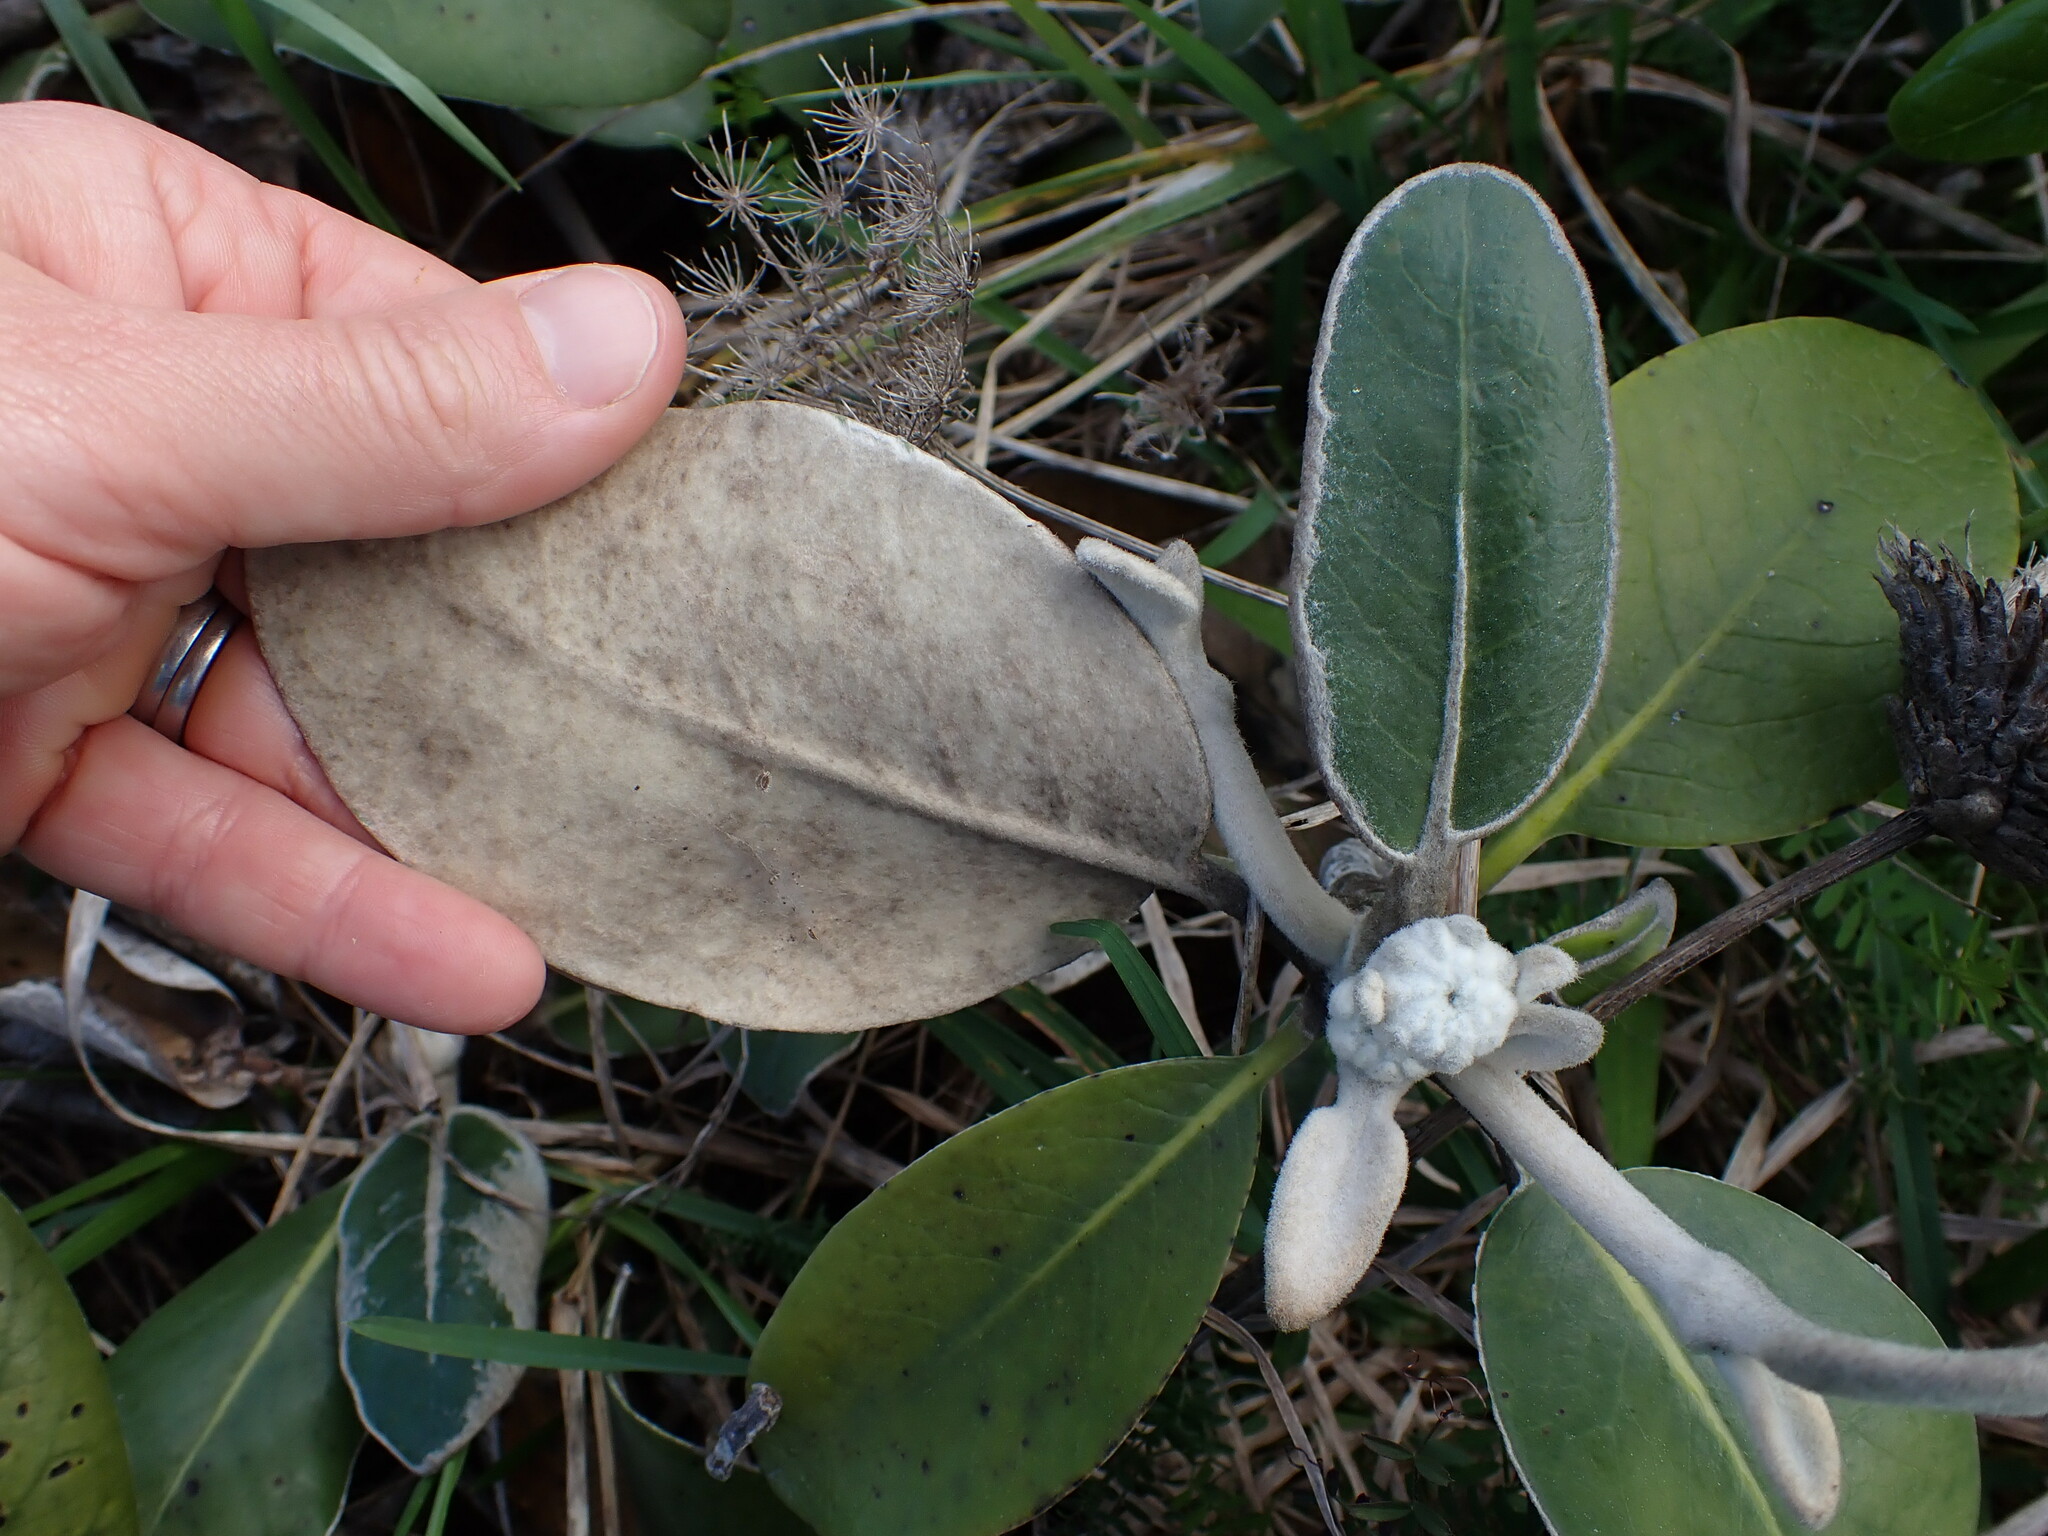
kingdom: Plantae
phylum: Tracheophyta
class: Magnoliopsida
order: Asterales
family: Asteraceae
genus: Pachystegia
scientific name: Pachystegia insignis
